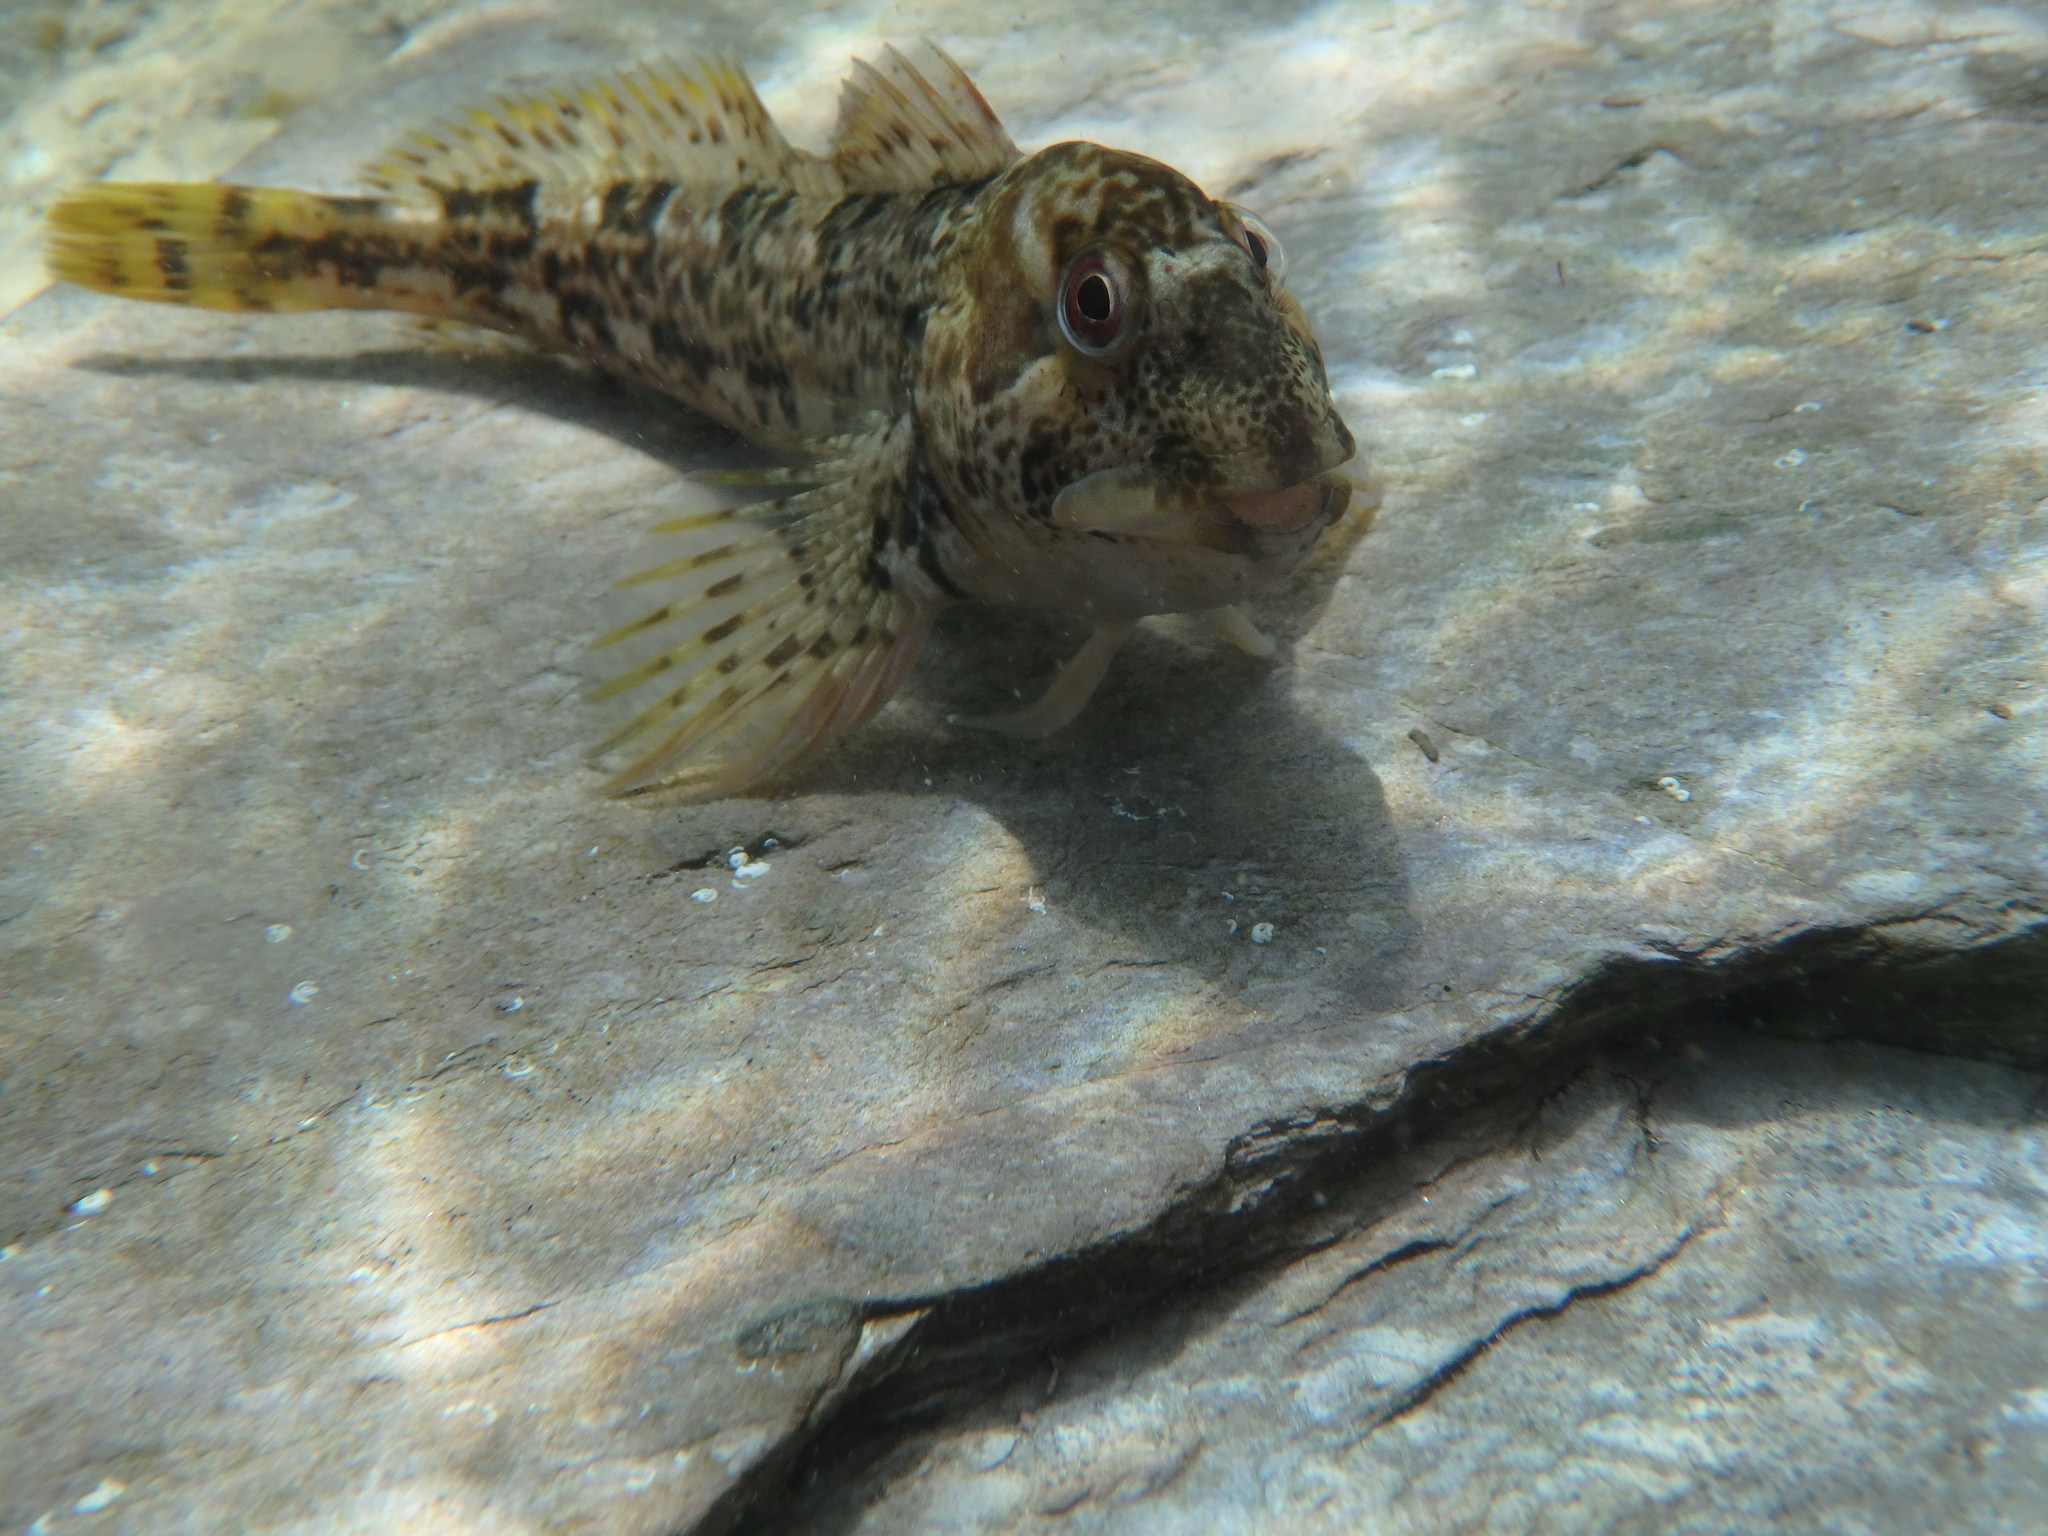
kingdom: Animalia
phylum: Chordata
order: Perciformes
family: Blenniidae
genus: Lipophrys
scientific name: Lipophrys pholis
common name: Shanny
